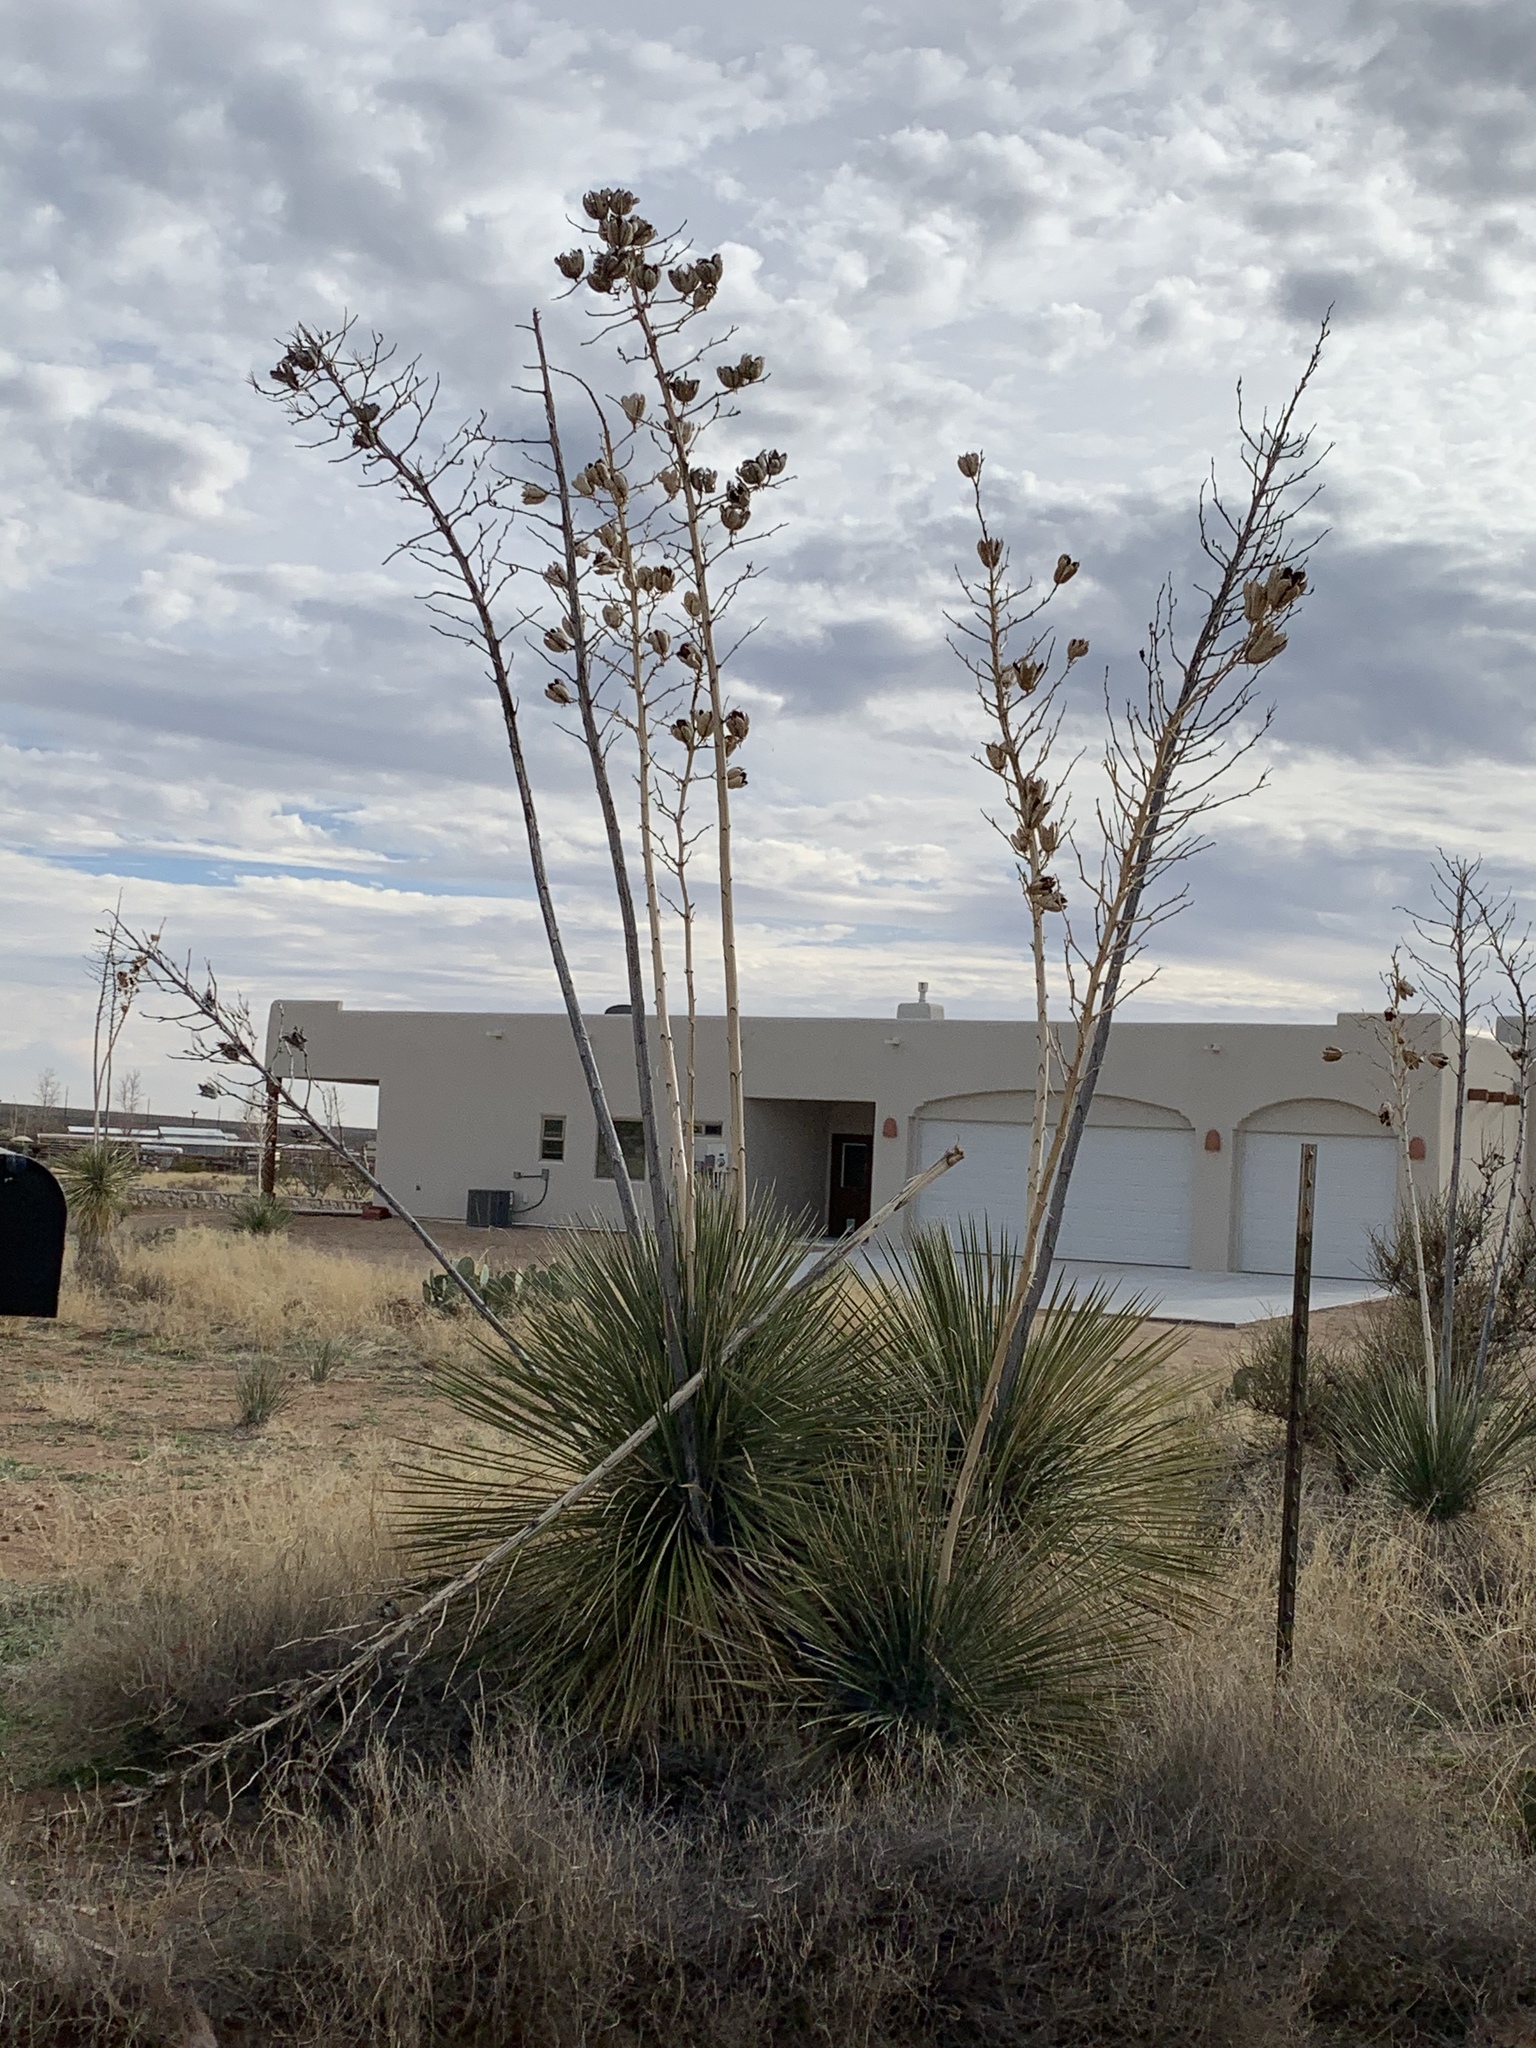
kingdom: Plantae
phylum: Tracheophyta
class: Liliopsida
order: Asparagales
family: Asparagaceae
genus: Yucca
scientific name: Yucca elata
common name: Palmella
